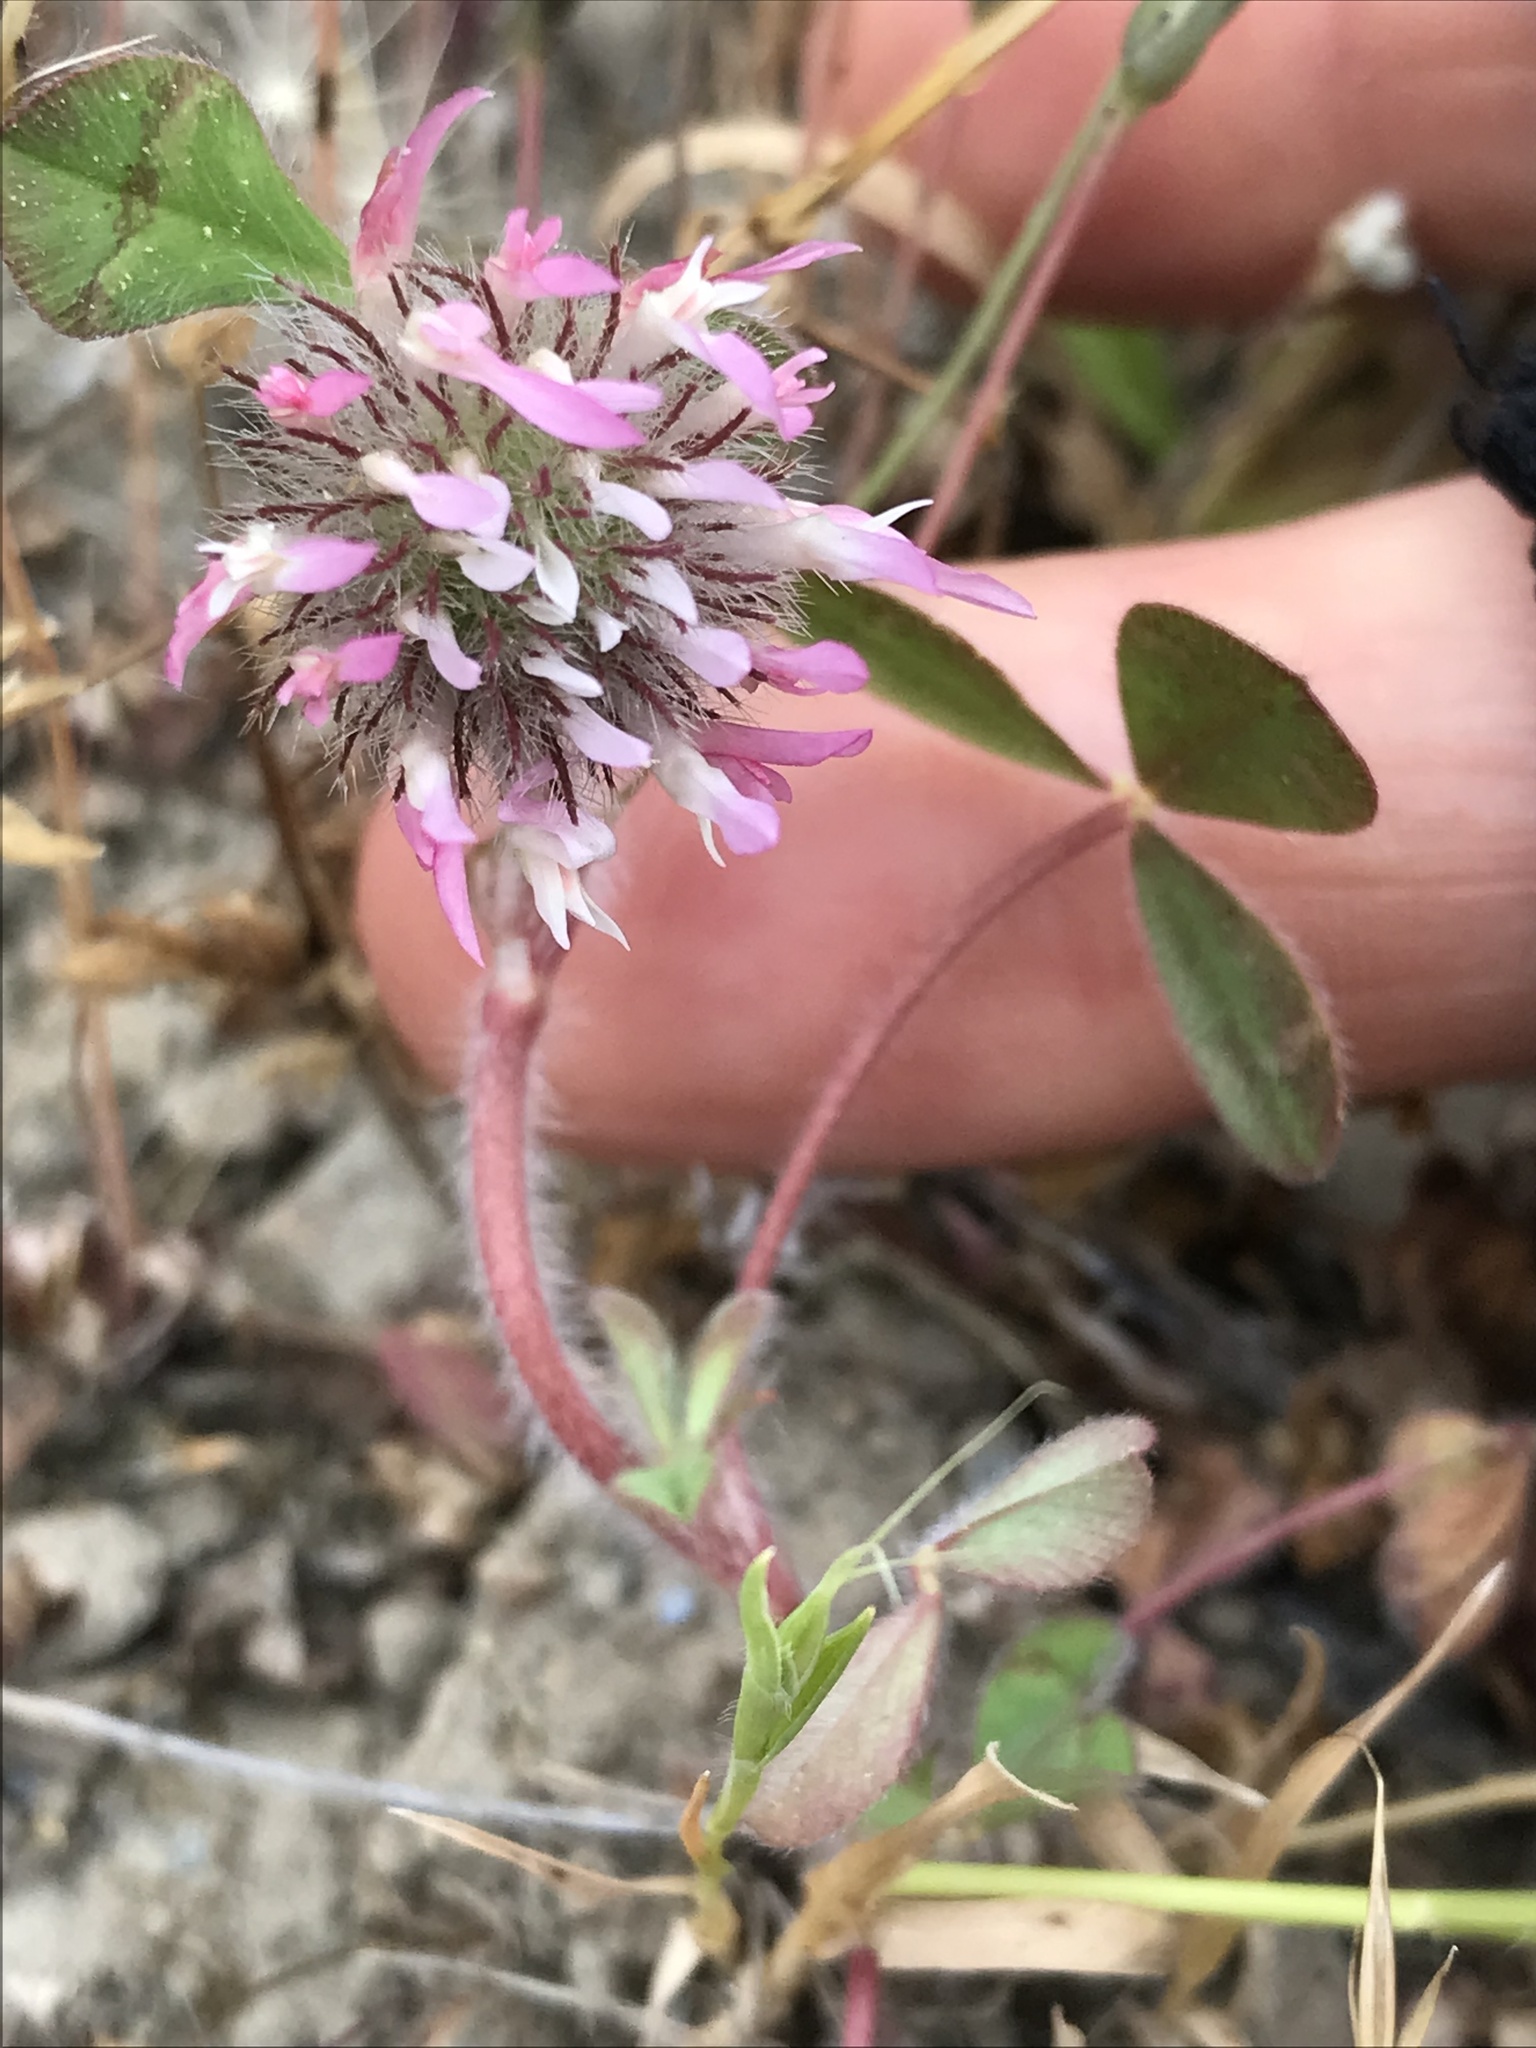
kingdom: Plantae
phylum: Tracheophyta
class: Magnoliopsida
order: Fabales
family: Fabaceae
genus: Trifolium
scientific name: Trifolium hirtum
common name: Rose clover
